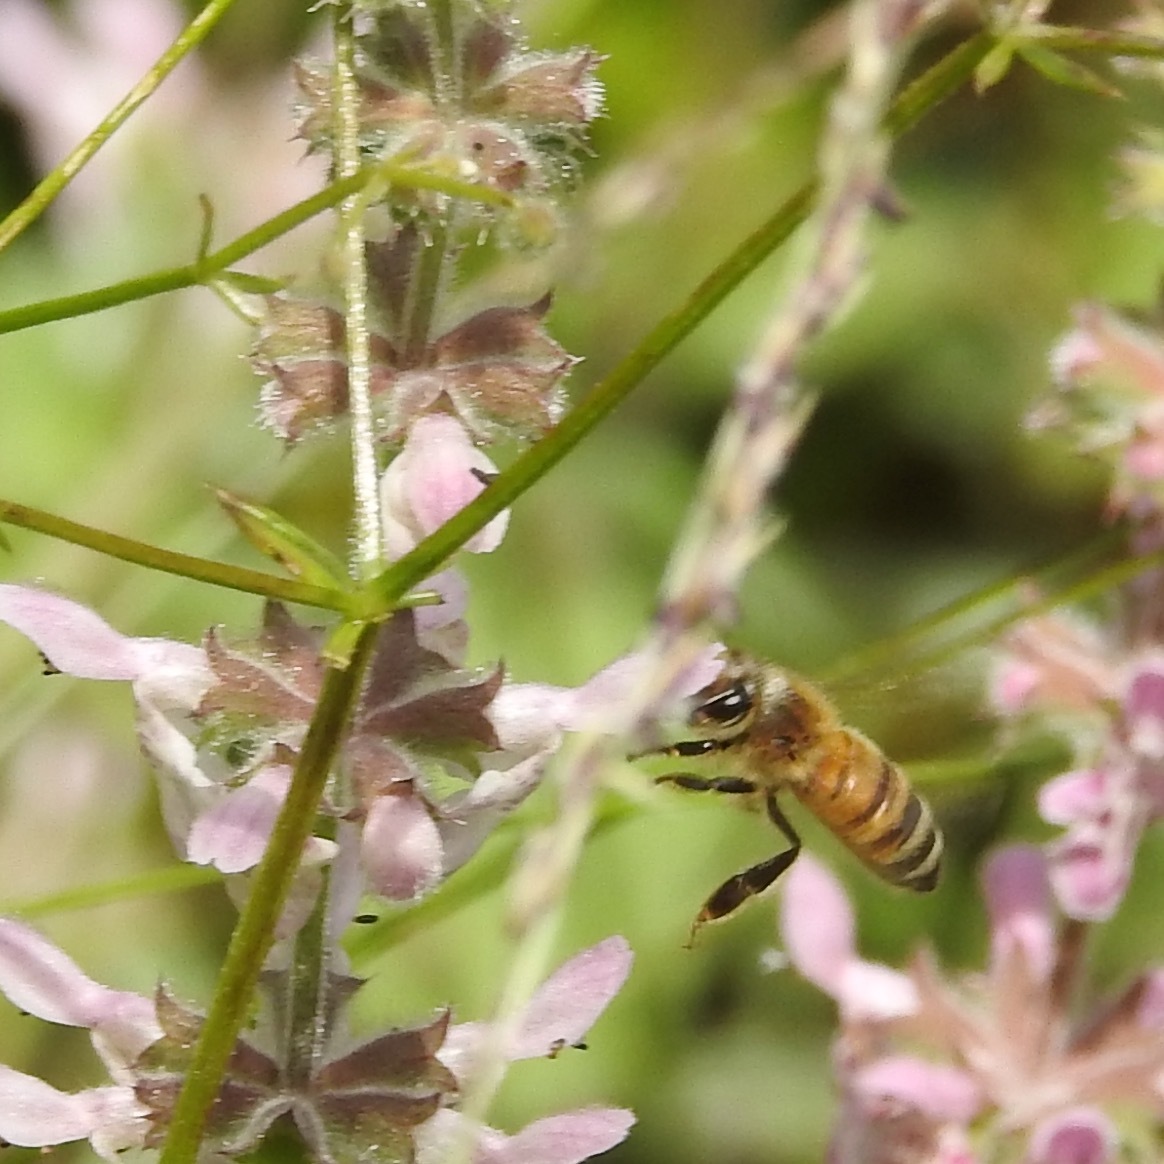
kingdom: Animalia
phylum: Arthropoda
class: Insecta
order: Hymenoptera
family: Apidae
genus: Apis
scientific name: Apis mellifera
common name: Honey bee
